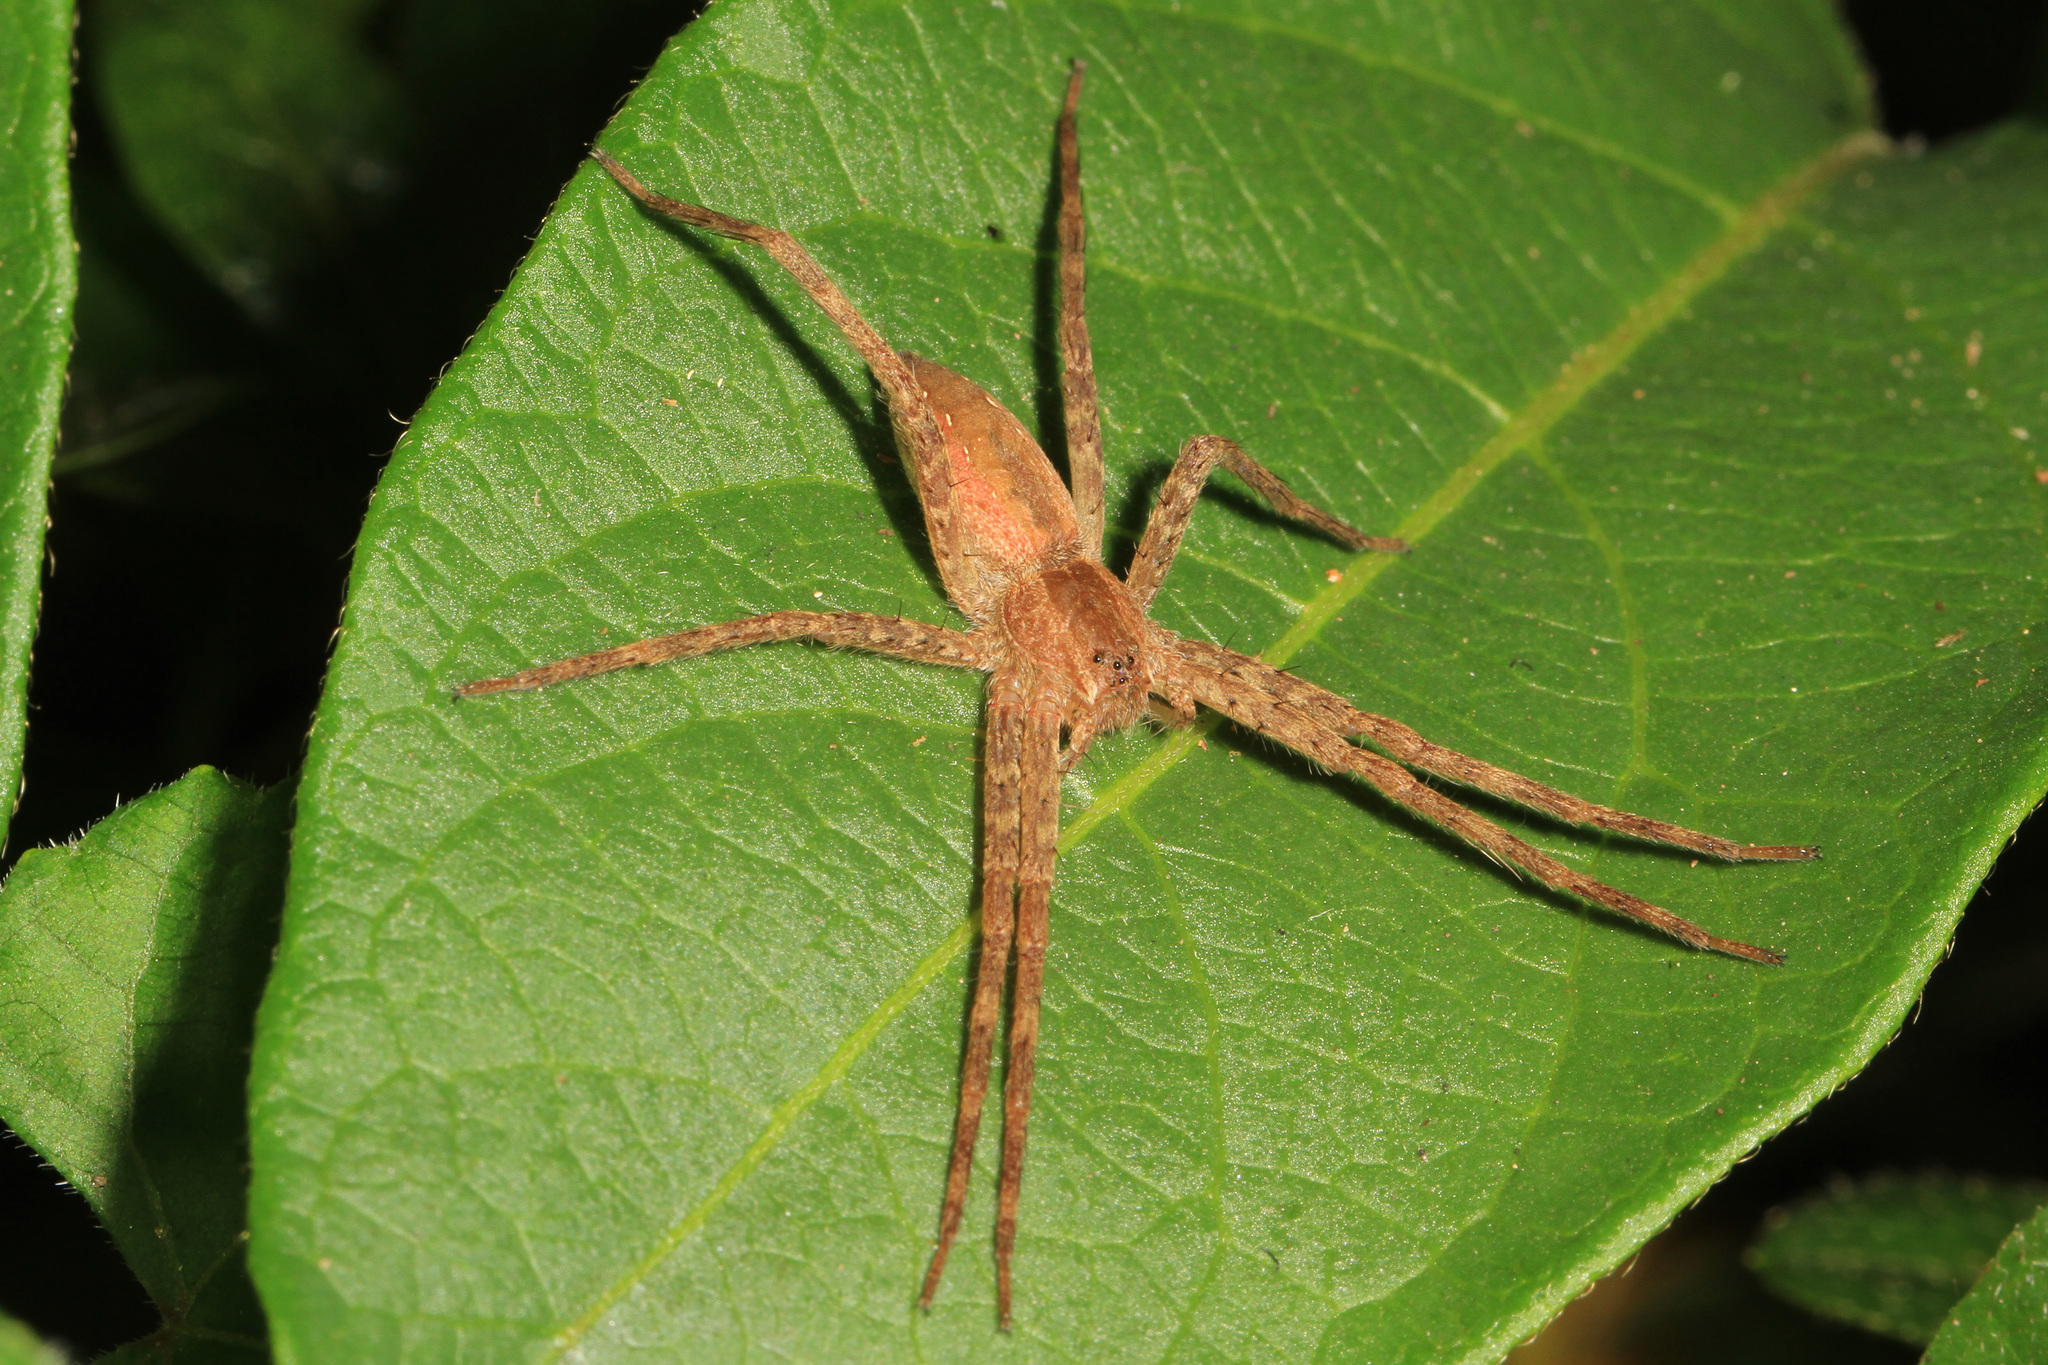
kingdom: Animalia
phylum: Arthropoda
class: Arachnida
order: Araneae
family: Pisauridae
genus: Pisaurina
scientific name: Pisaurina mira
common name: American nursery web spider
